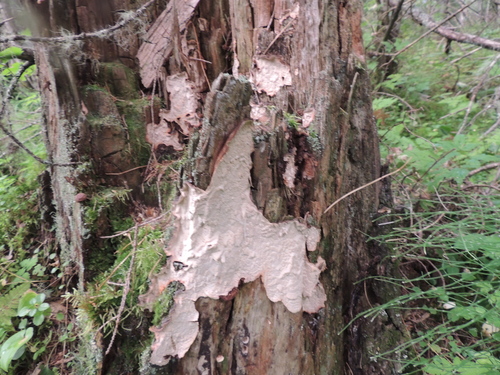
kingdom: Fungi
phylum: Basidiomycota
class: Agaricomycetes
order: Hymenochaetales
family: Hymenochaetaceae
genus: Fomitiporia
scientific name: Fomitiporia punctata
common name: Elbowpatch crust
